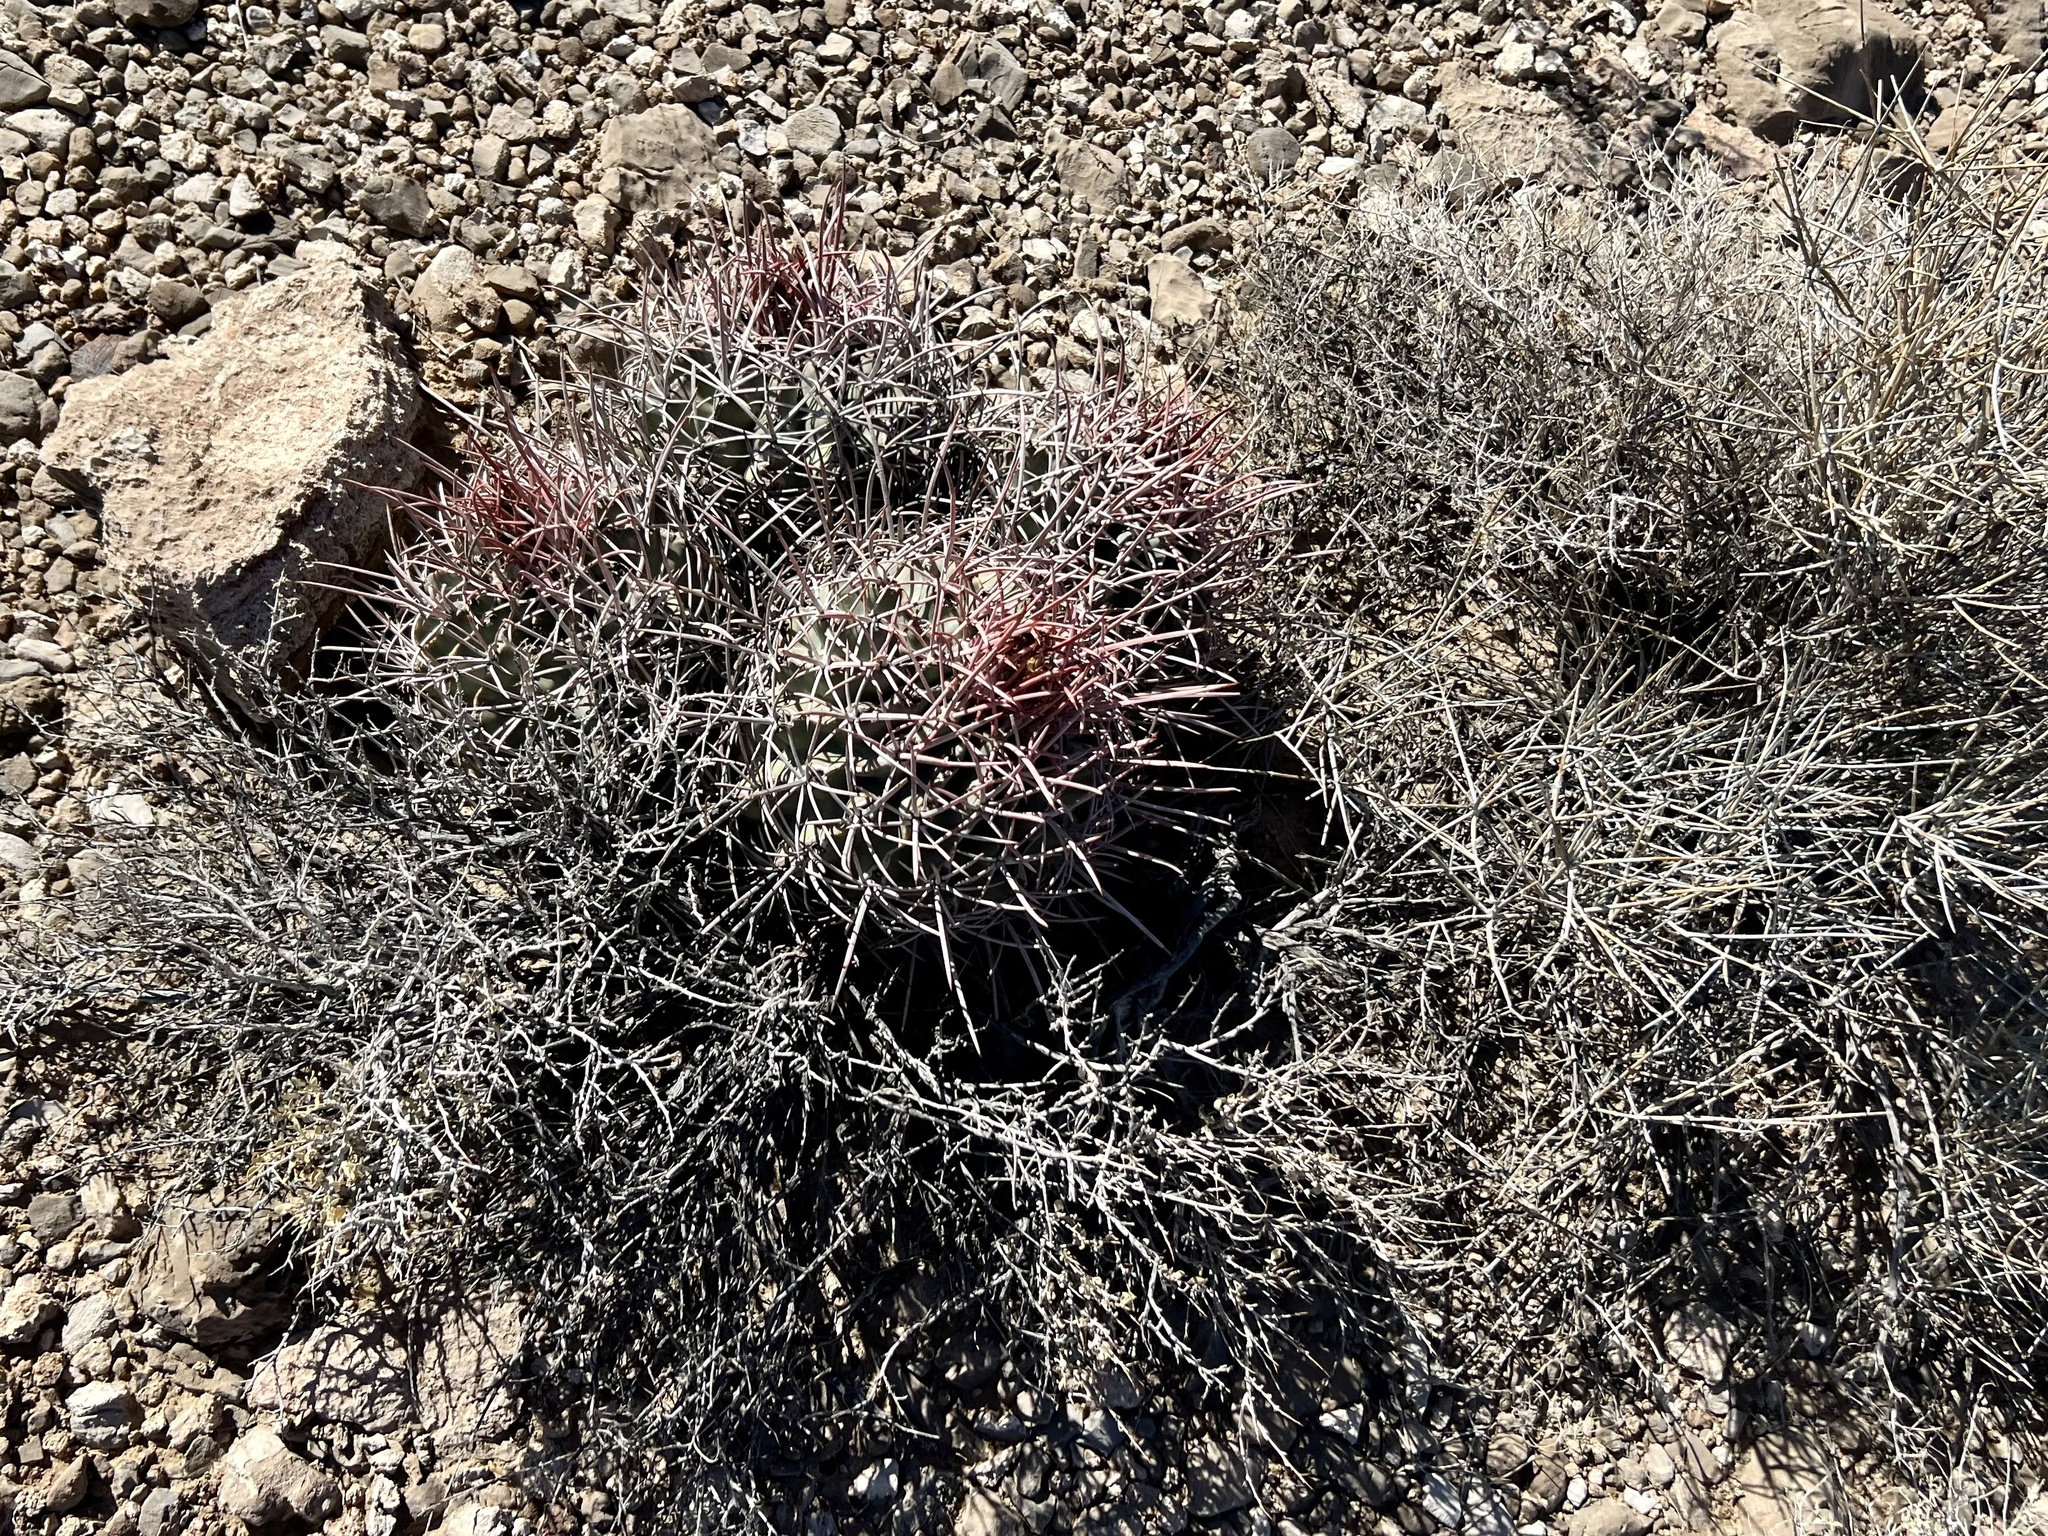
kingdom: Plantae
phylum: Tracheophyta
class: Magnoliopsida
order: Caryophyllales
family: Cactaceae
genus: Echinocactus
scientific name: Echinocactus polycephalus
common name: Cottontop cactus
